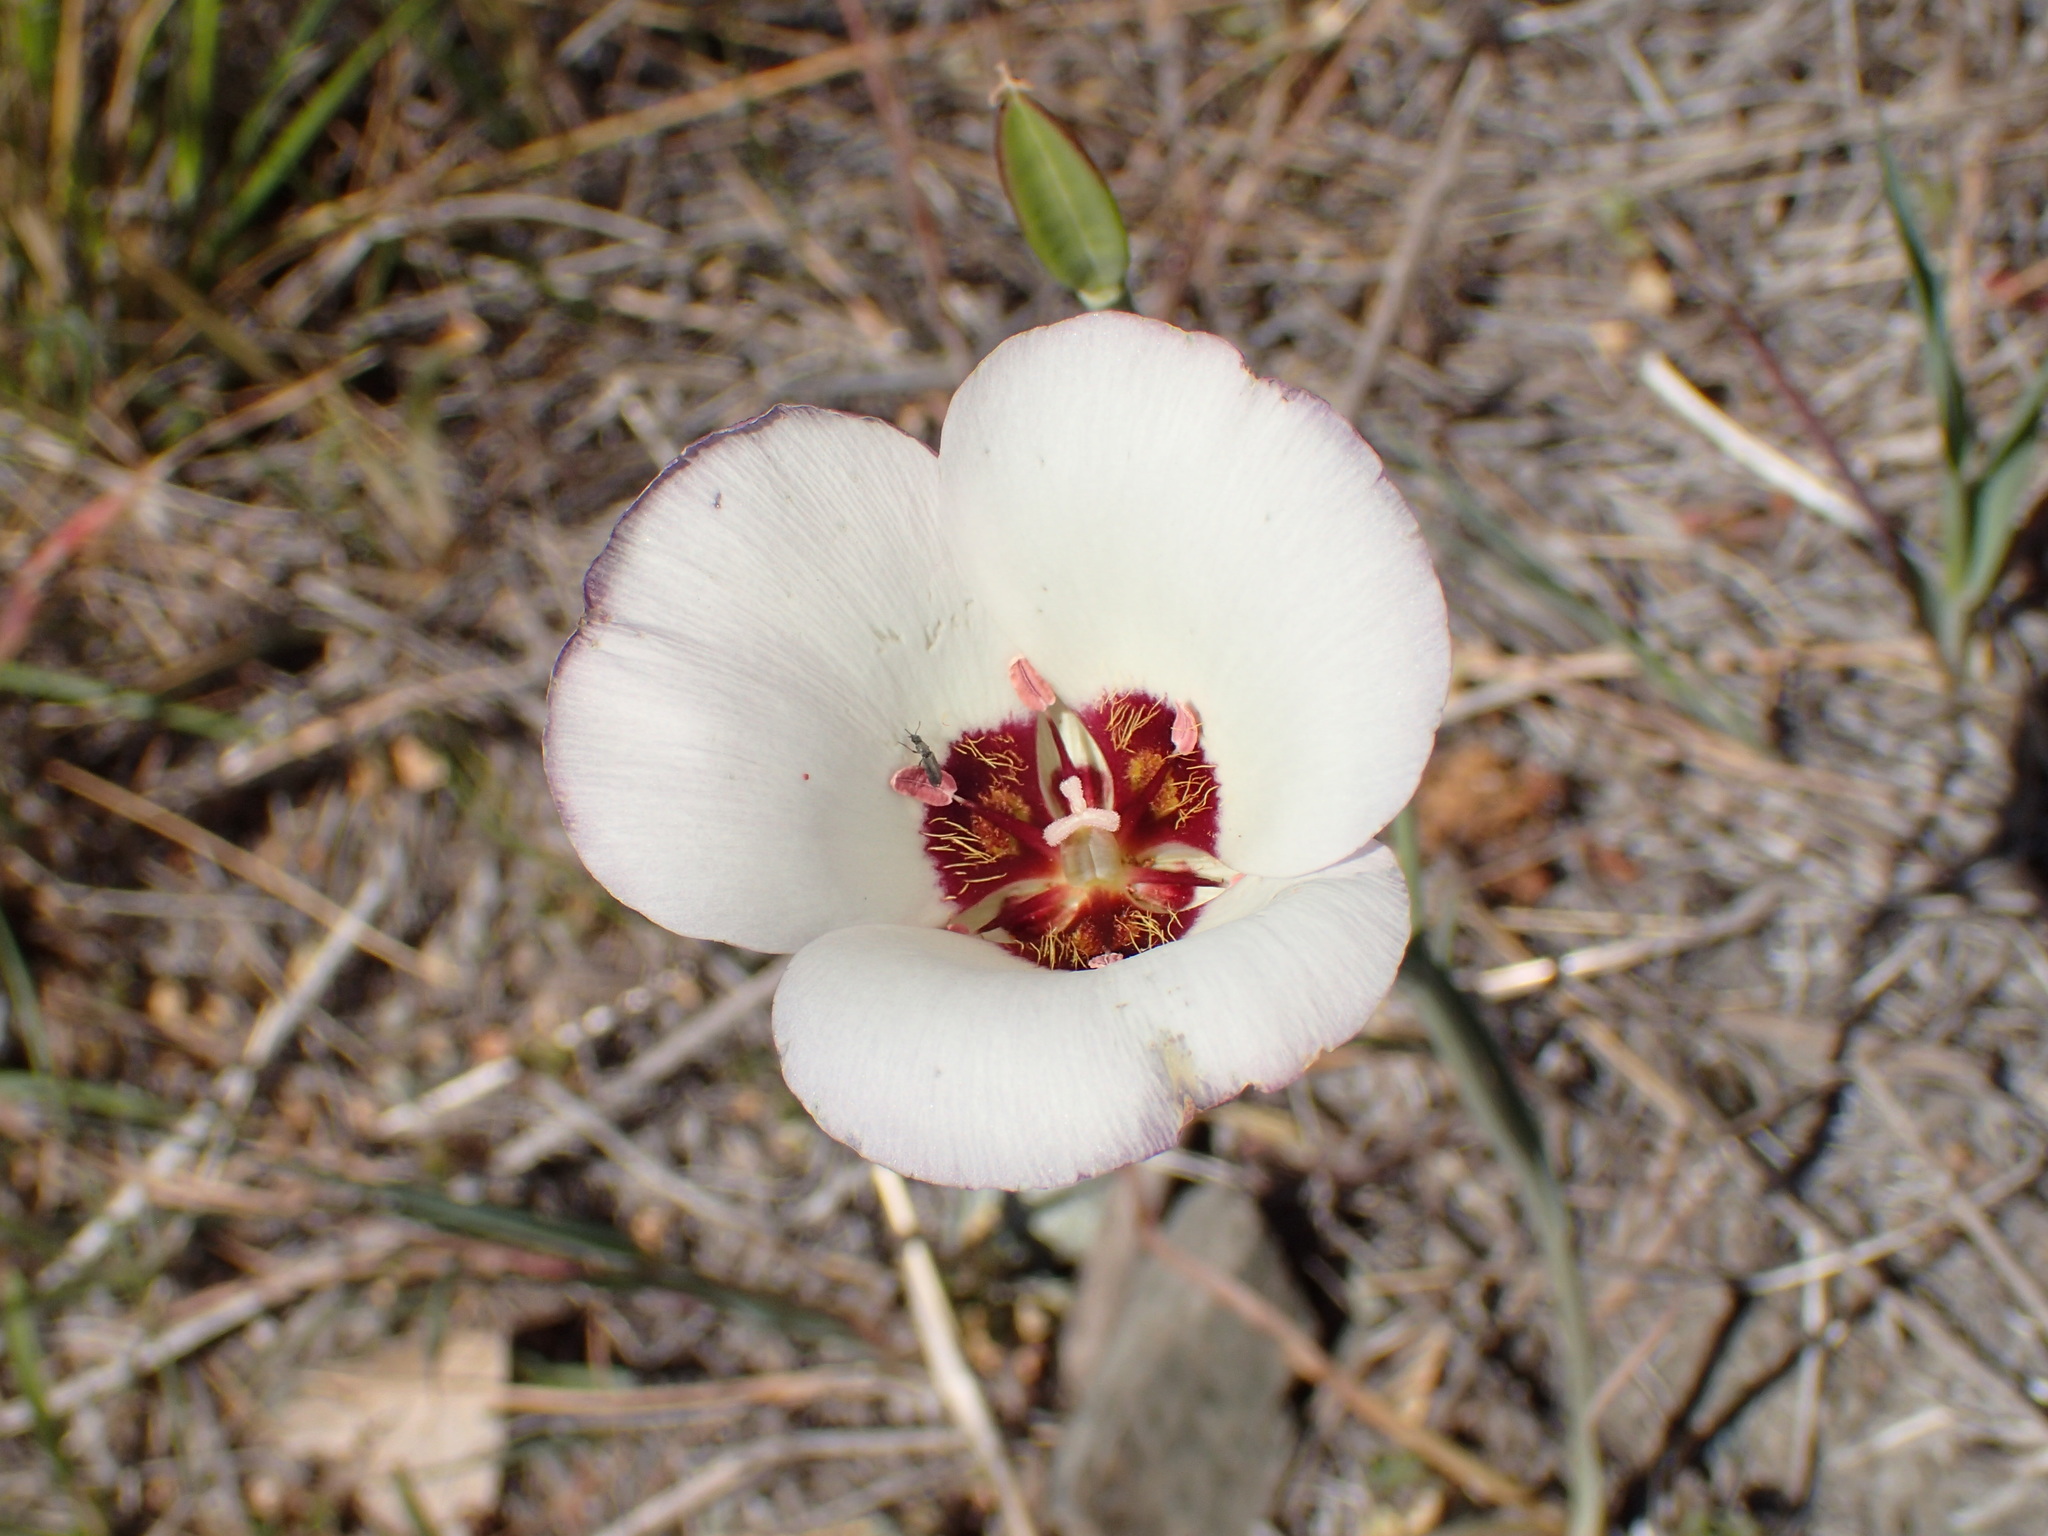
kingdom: Plantae
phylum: Tracheophyta
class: Liliopsida
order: Liliales
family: Liliaceae
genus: Calochortus
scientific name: Calochortus catalinae
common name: Catalina mariposa-lily
